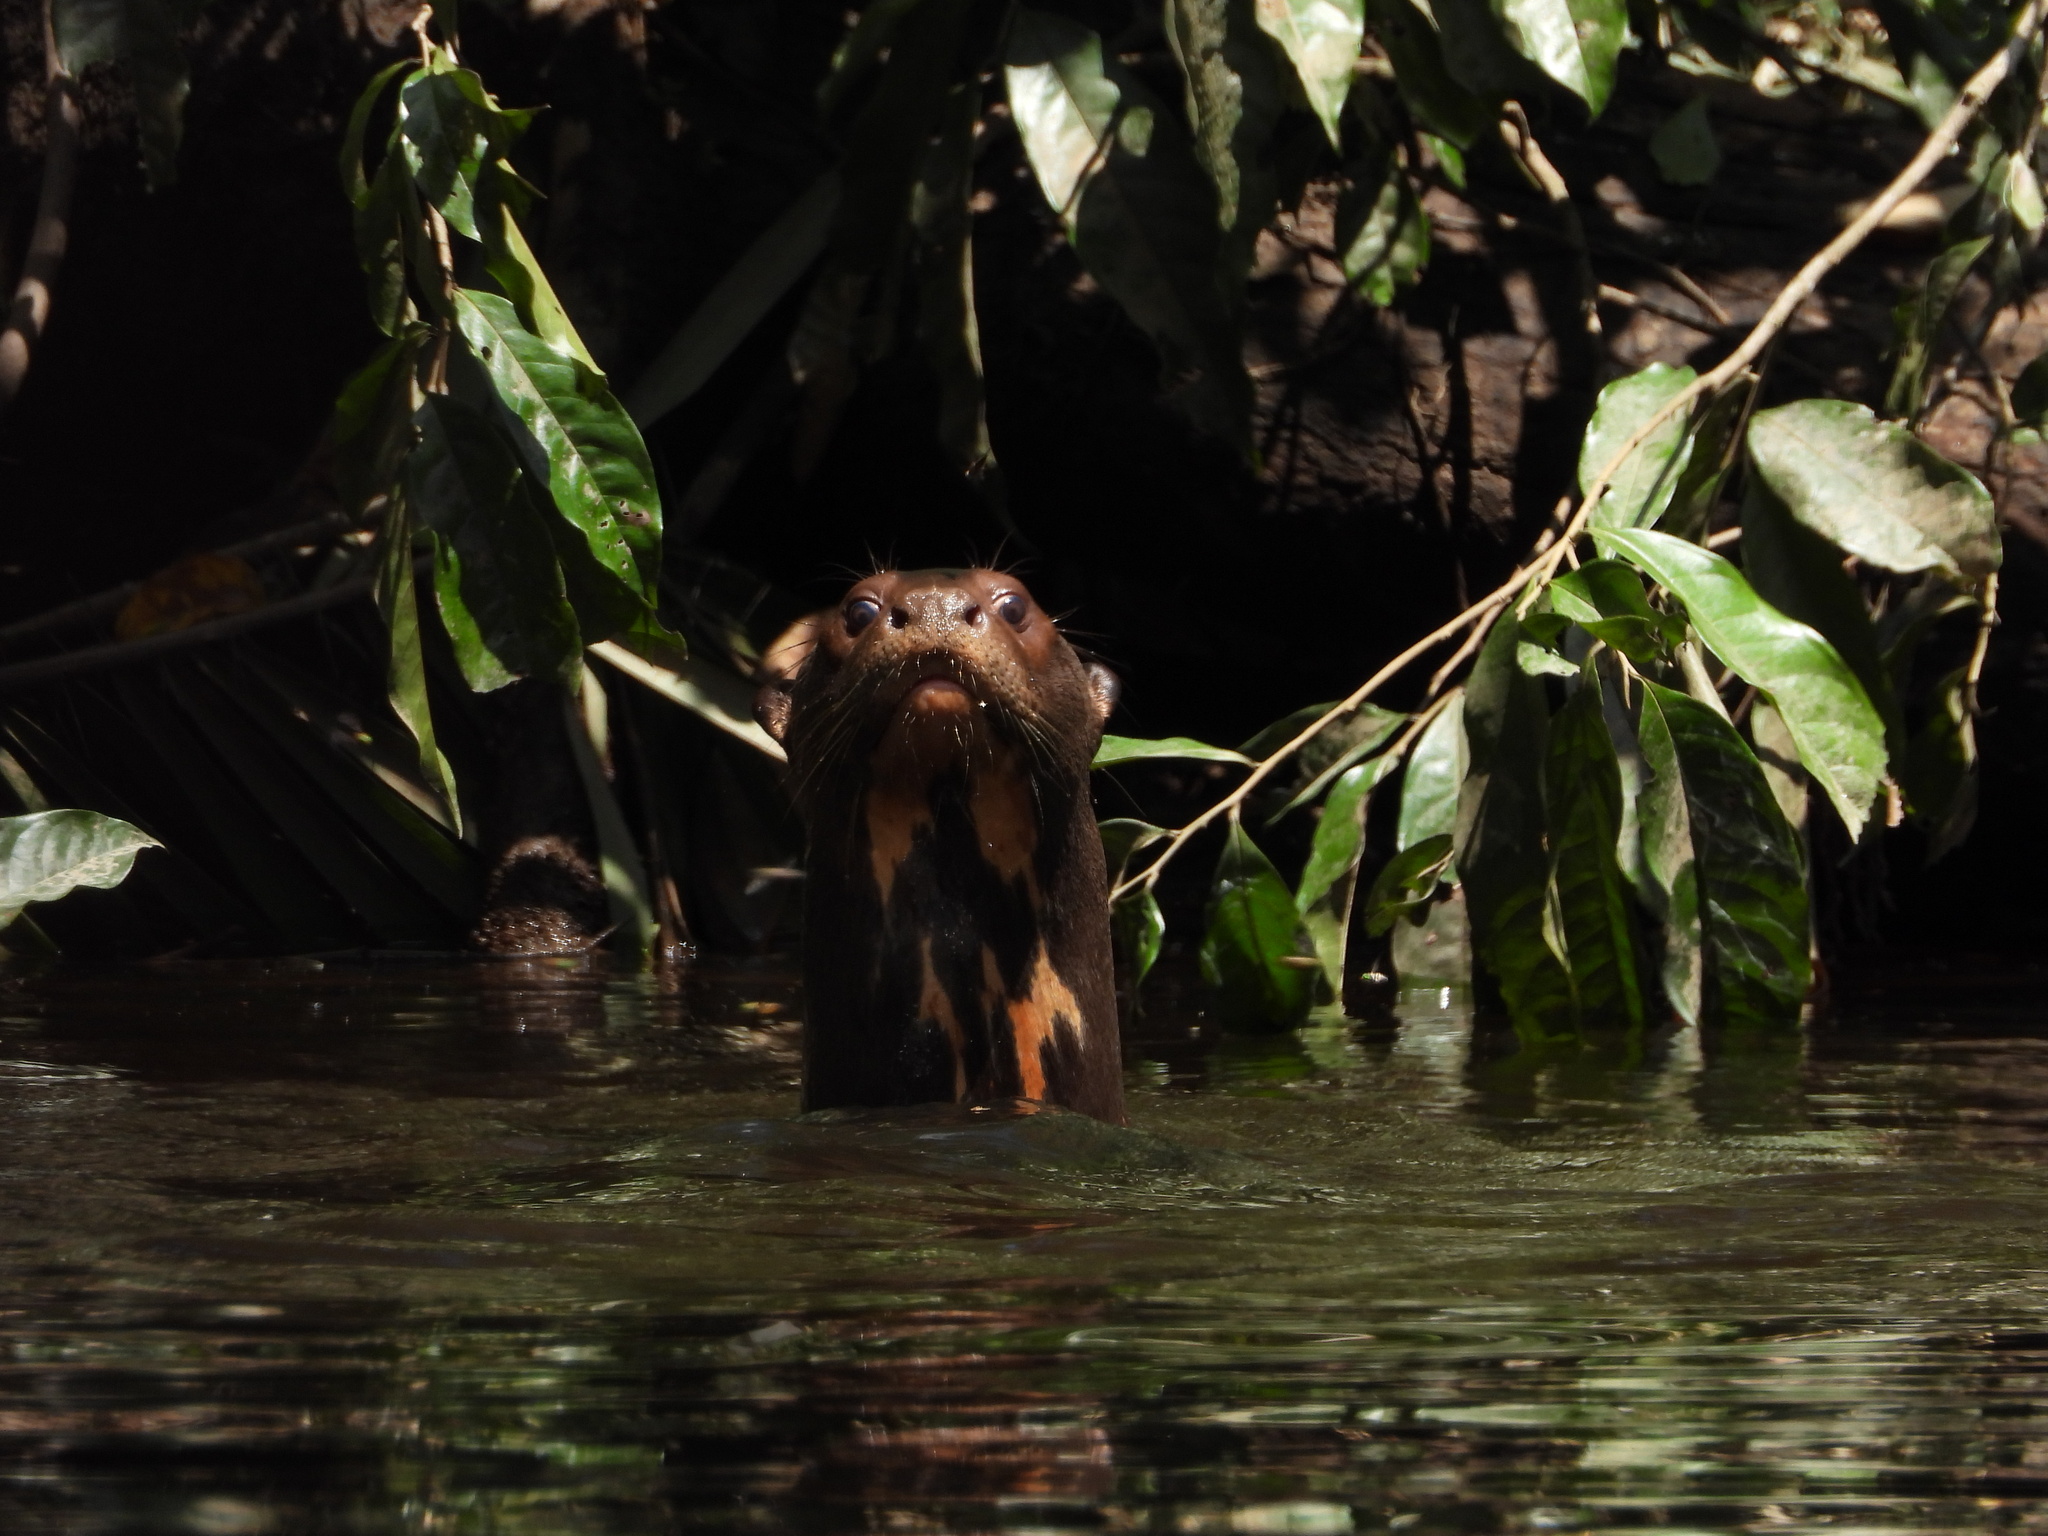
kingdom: Animalia
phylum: Chordata
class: Mammalia
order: Carnivora
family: Mustelidae
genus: Pteronura
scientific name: Pteronura brasiliensis
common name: Giant otter
